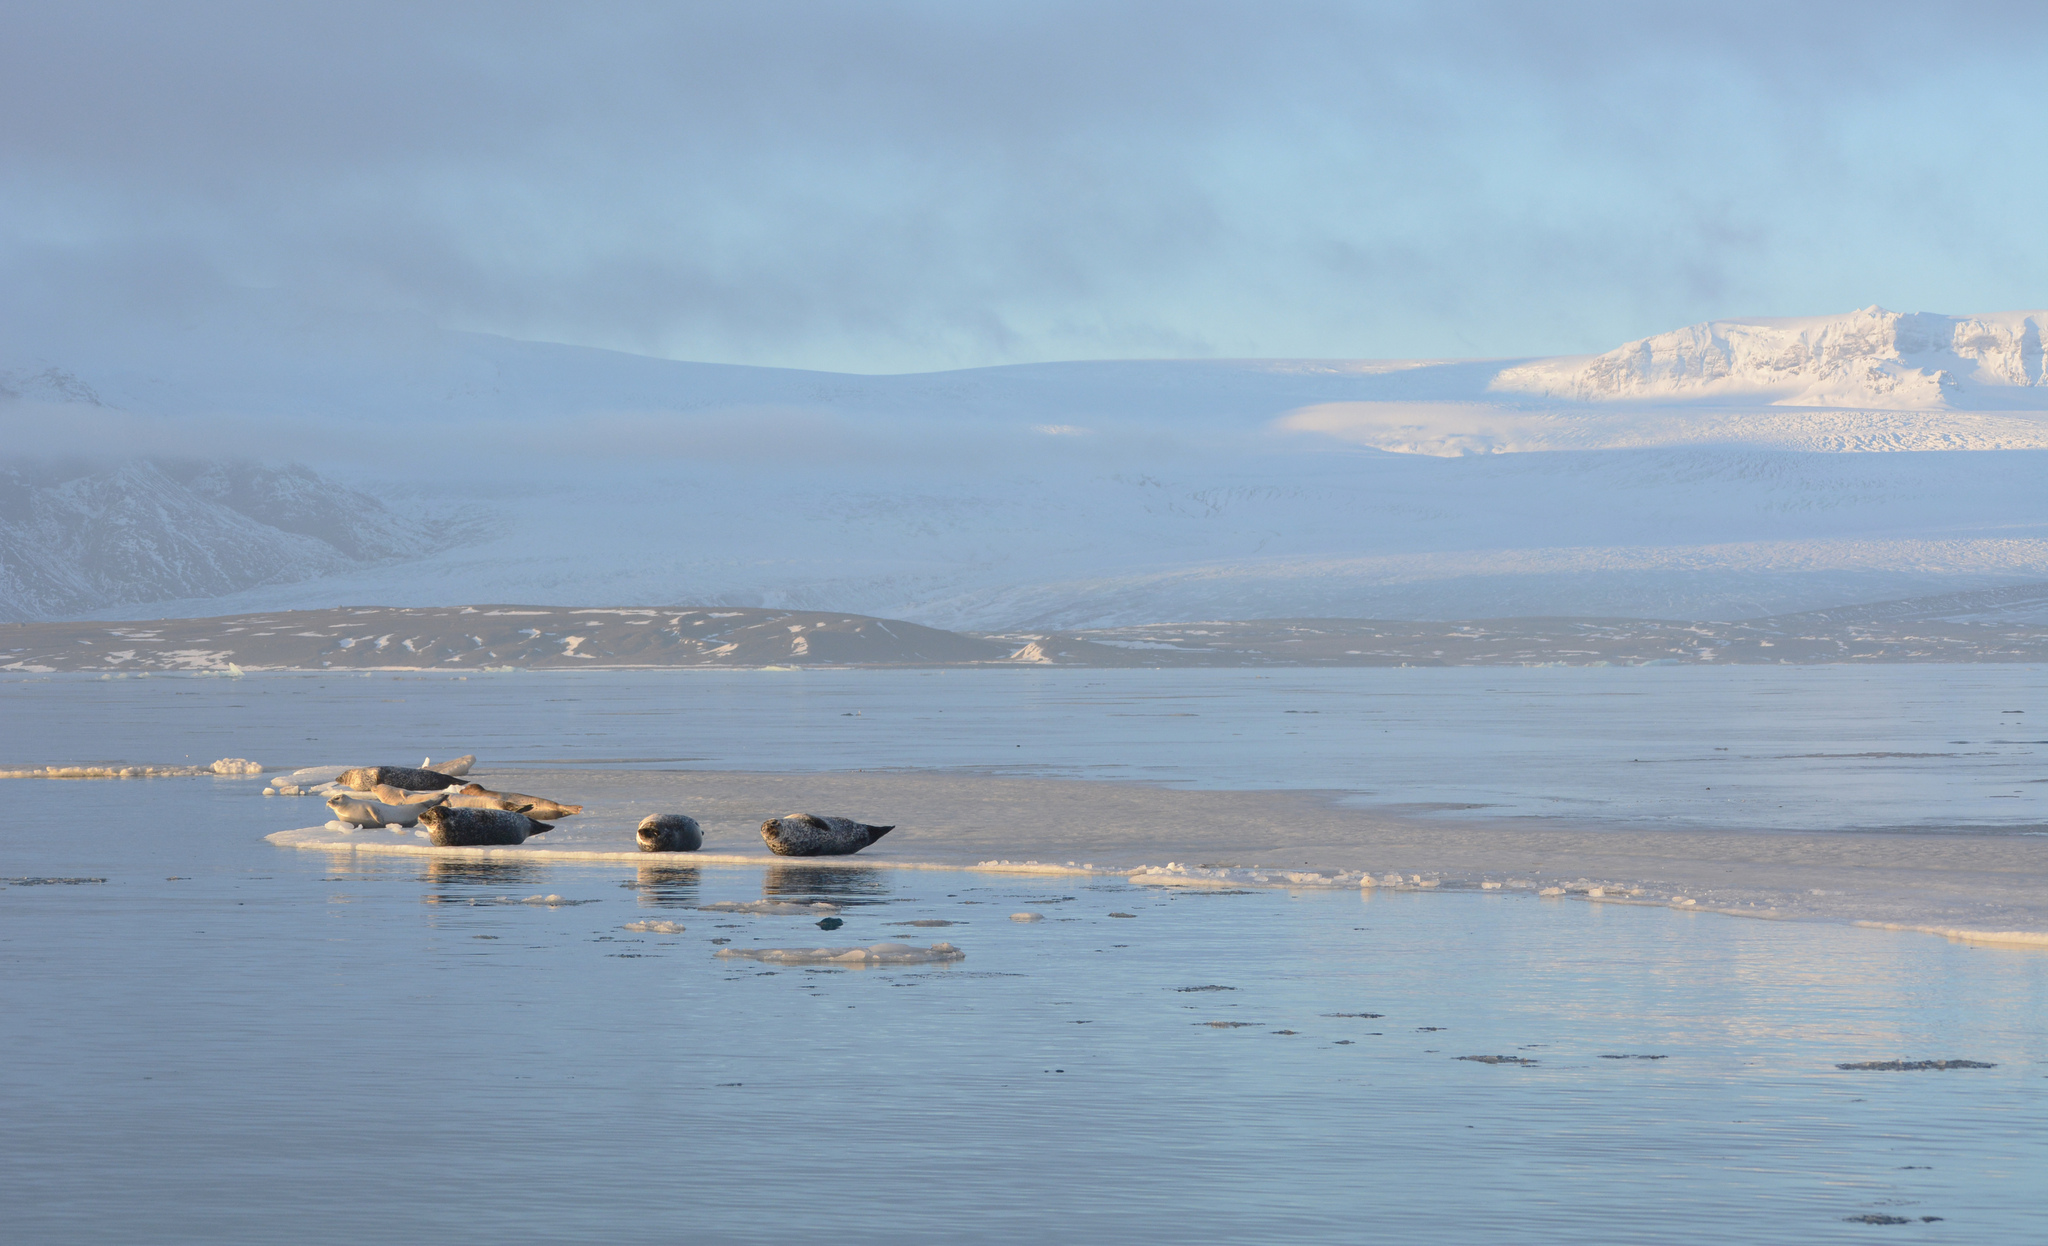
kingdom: Animalia
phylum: Chordata
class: Mammalia
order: Carnivora
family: Phocidae
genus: Phoca
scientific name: Phoca vitulina
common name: Harbor seal
